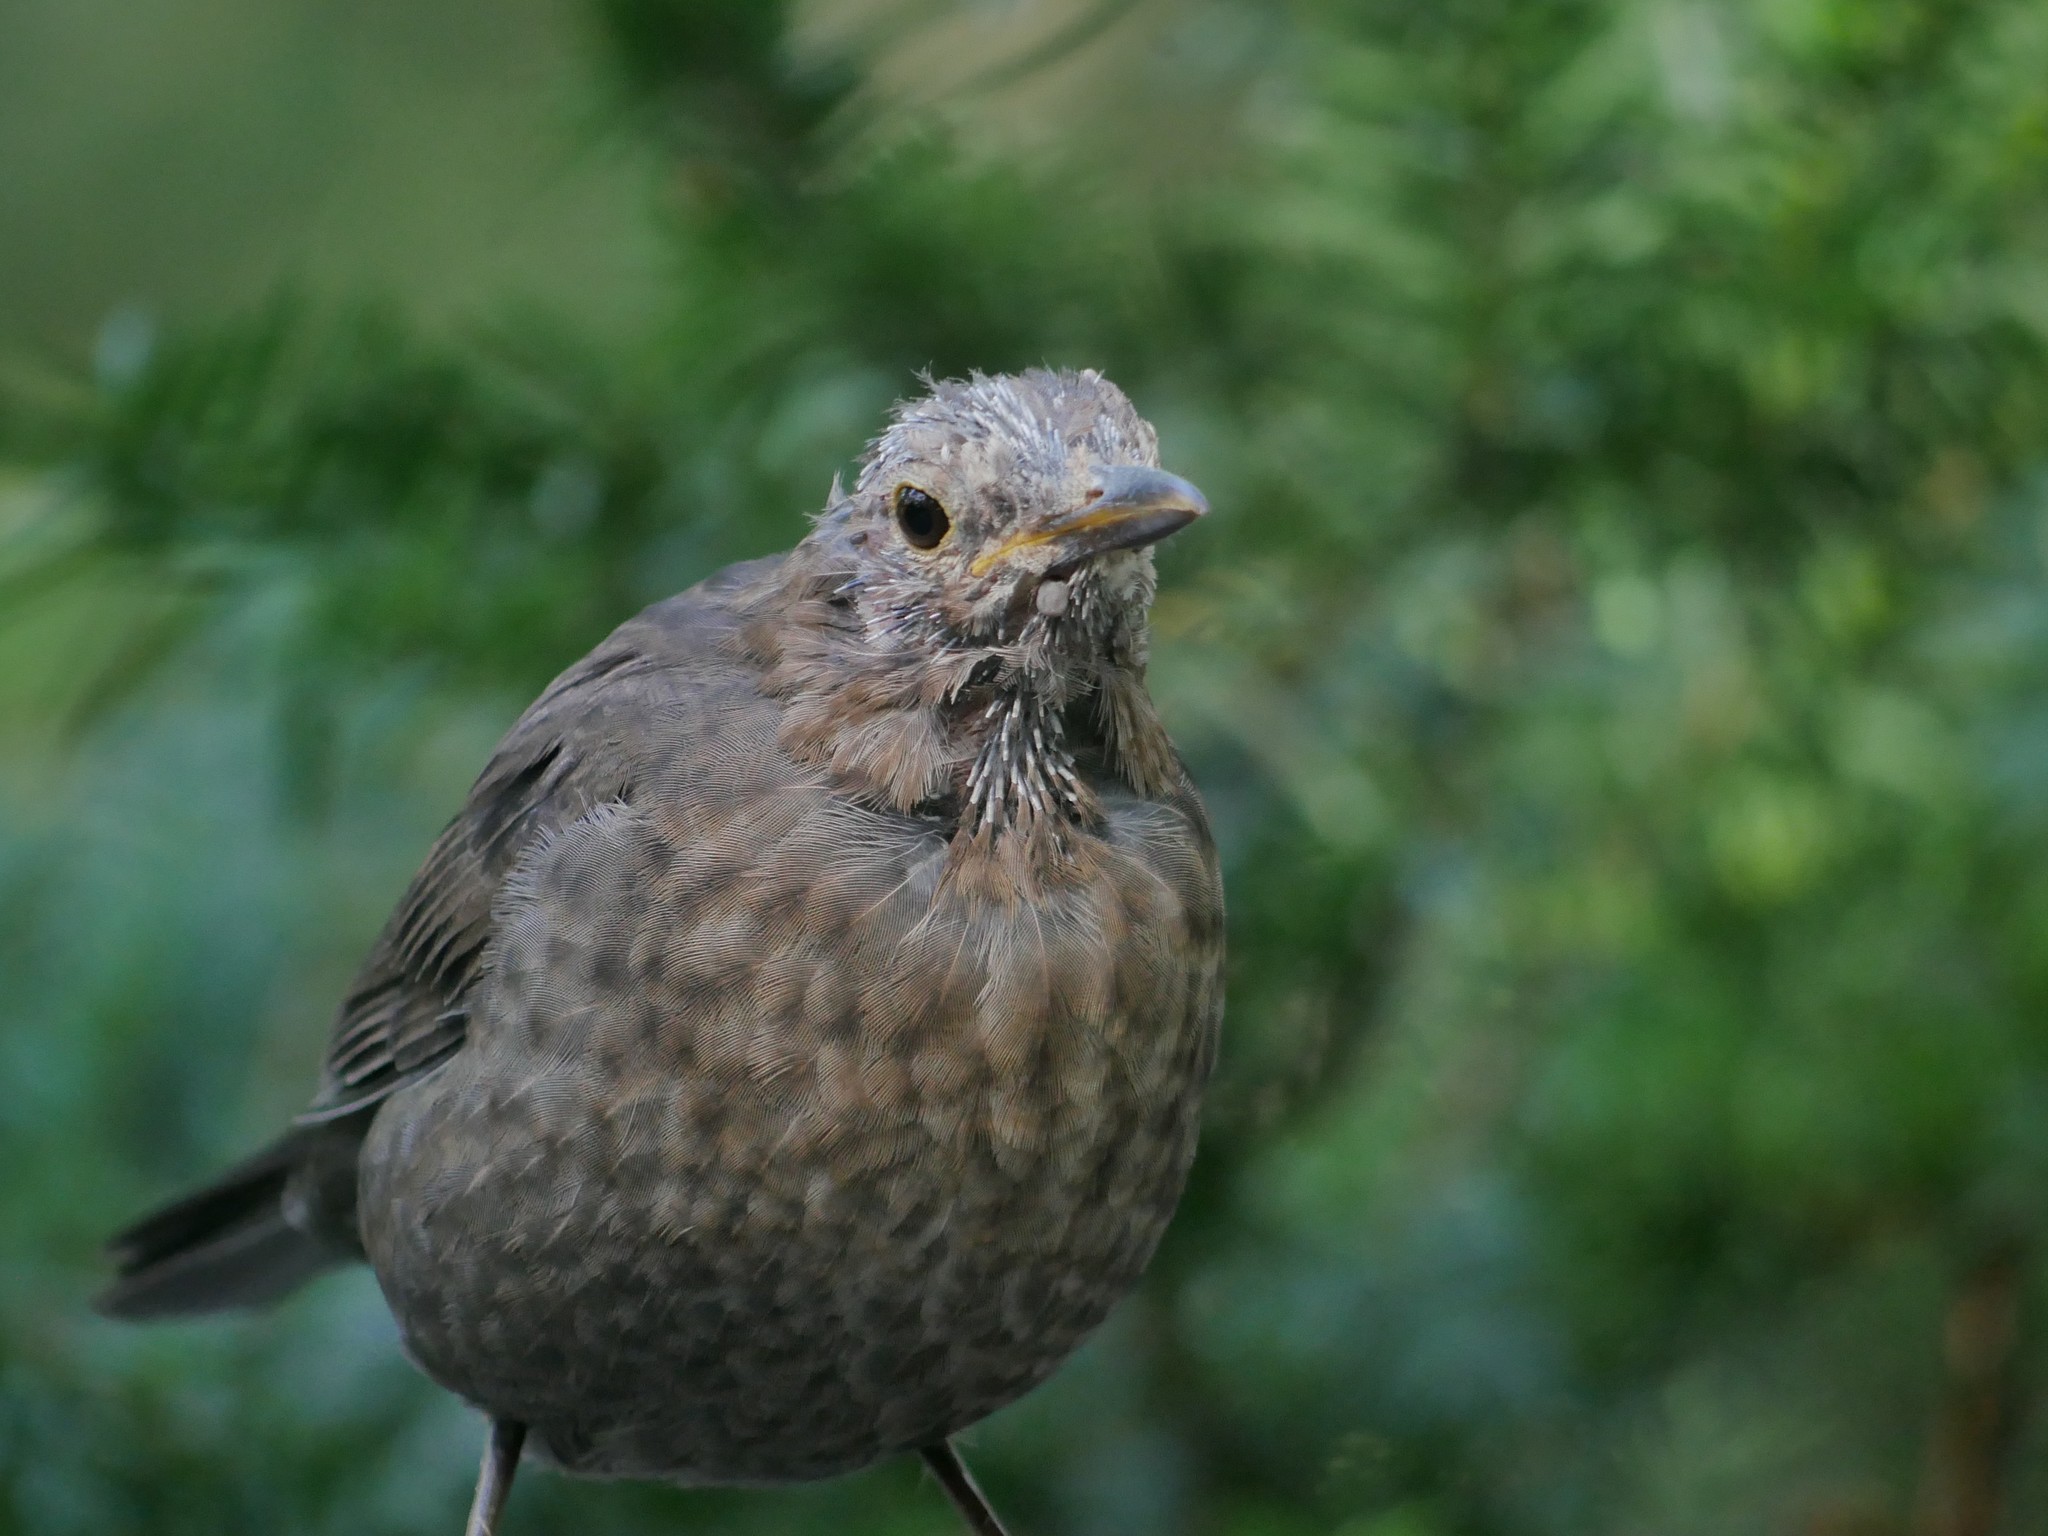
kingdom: Animalia
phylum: Chordata
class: Aves
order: Passeriformes
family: Turdidae
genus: Turdus
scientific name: Turdus merula
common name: Common blackbird
